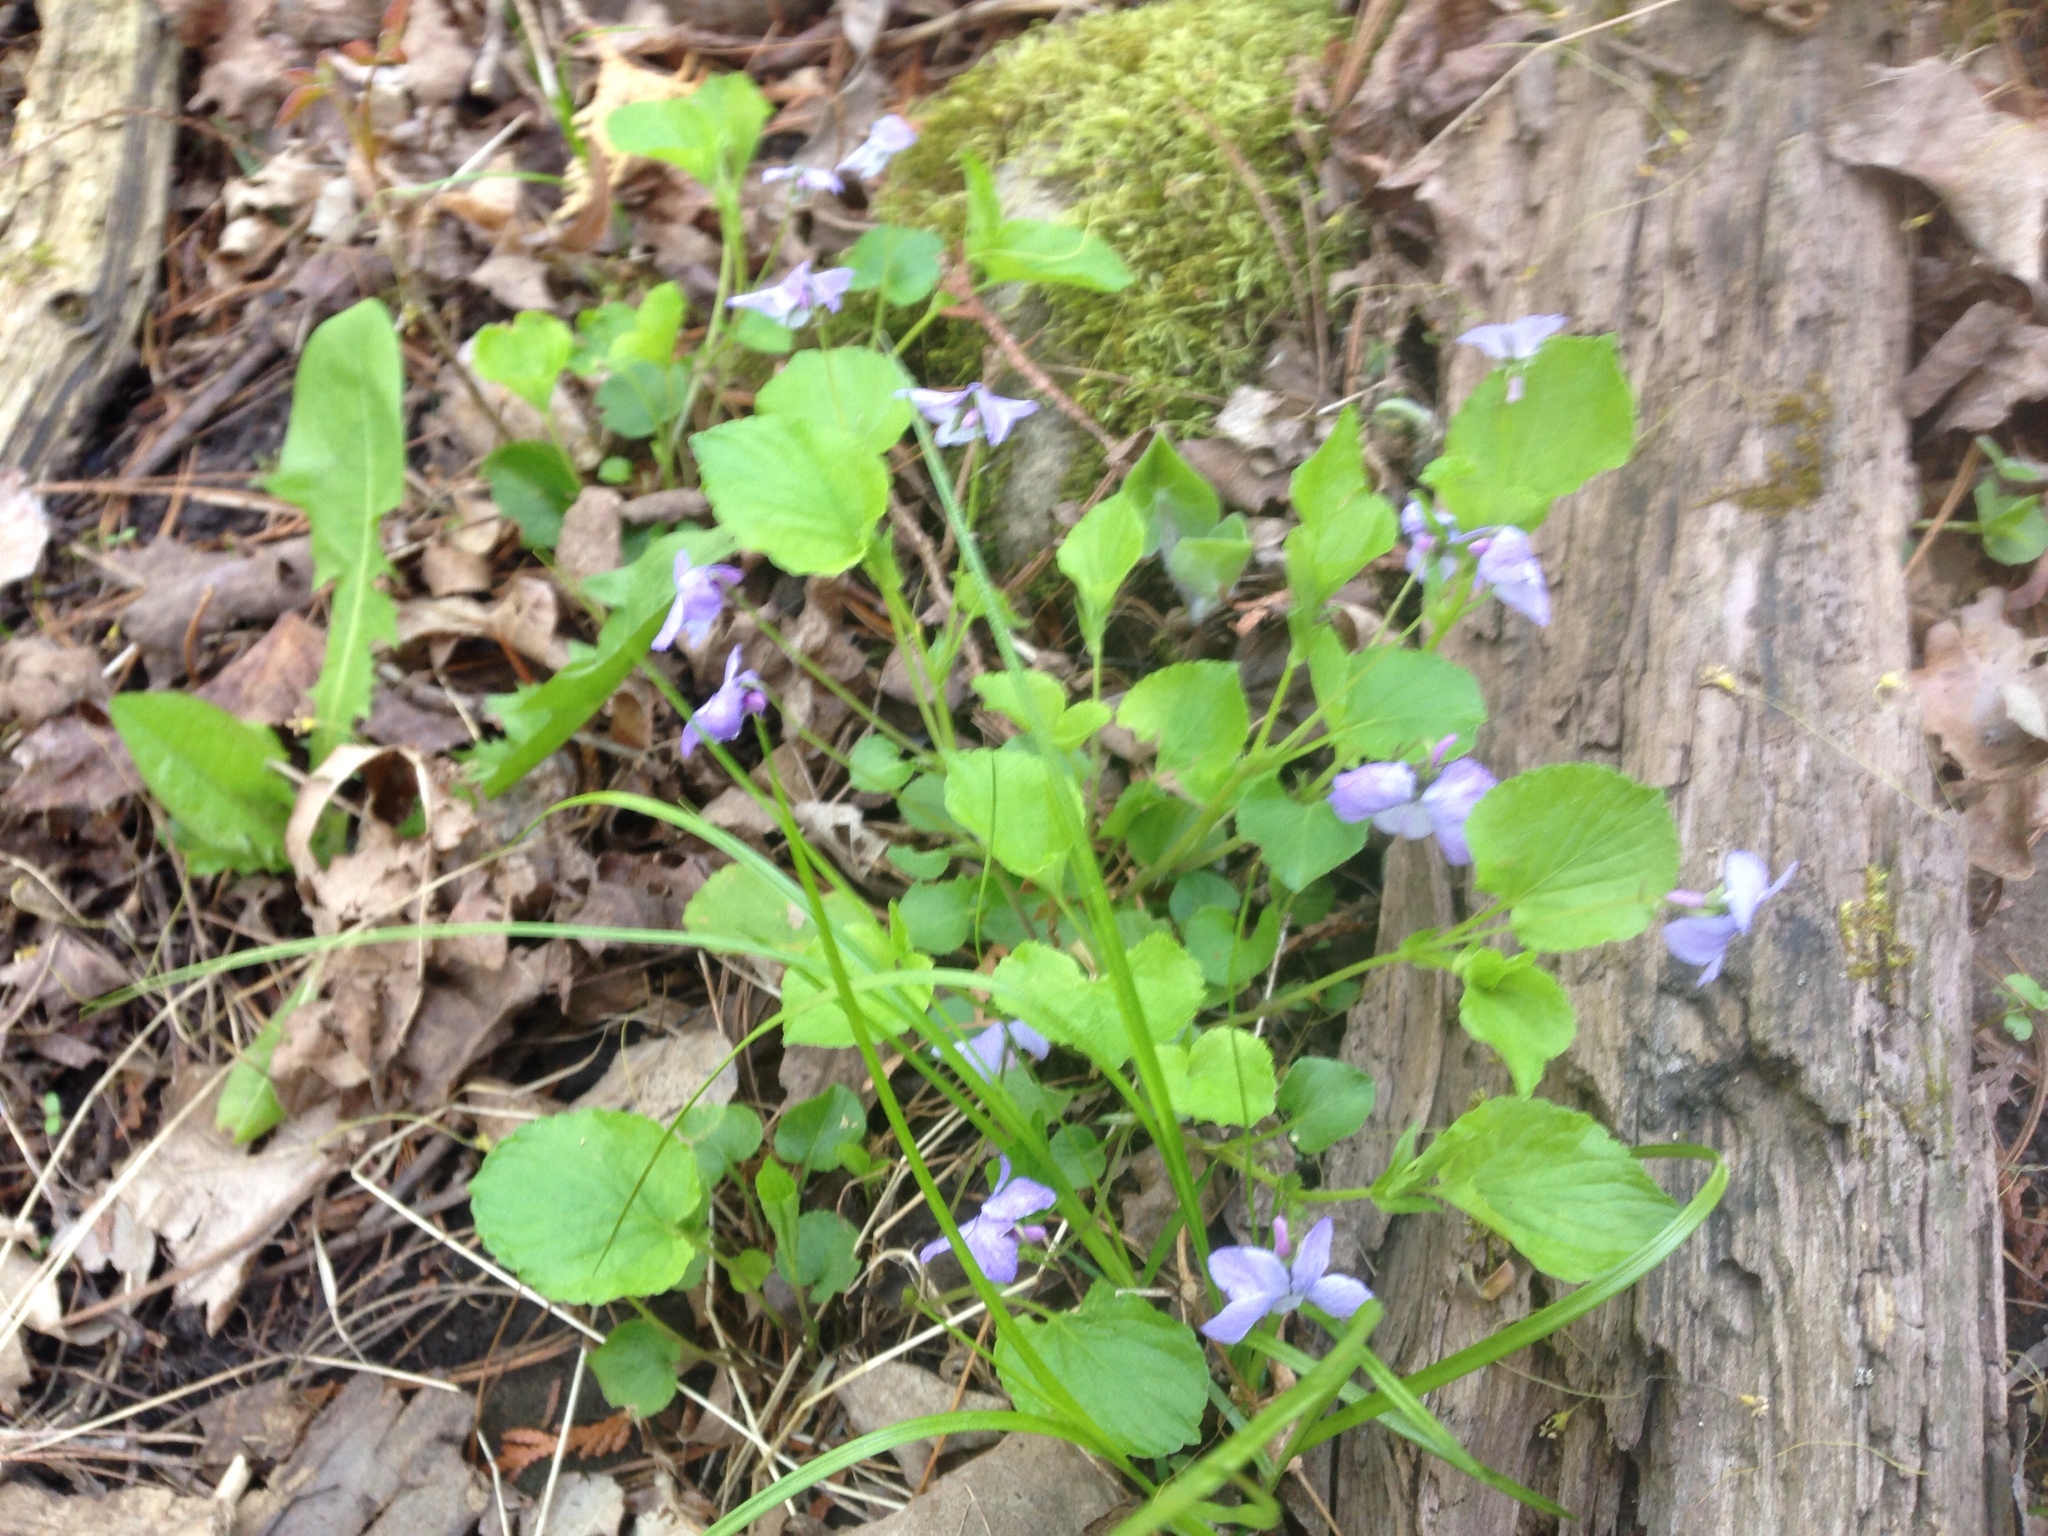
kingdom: Plantae
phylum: Tracheophyta
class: Magnoliopsida
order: Malpighiales
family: Violaceae
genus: Viola
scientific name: Viola labradorica
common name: Labrador violet
